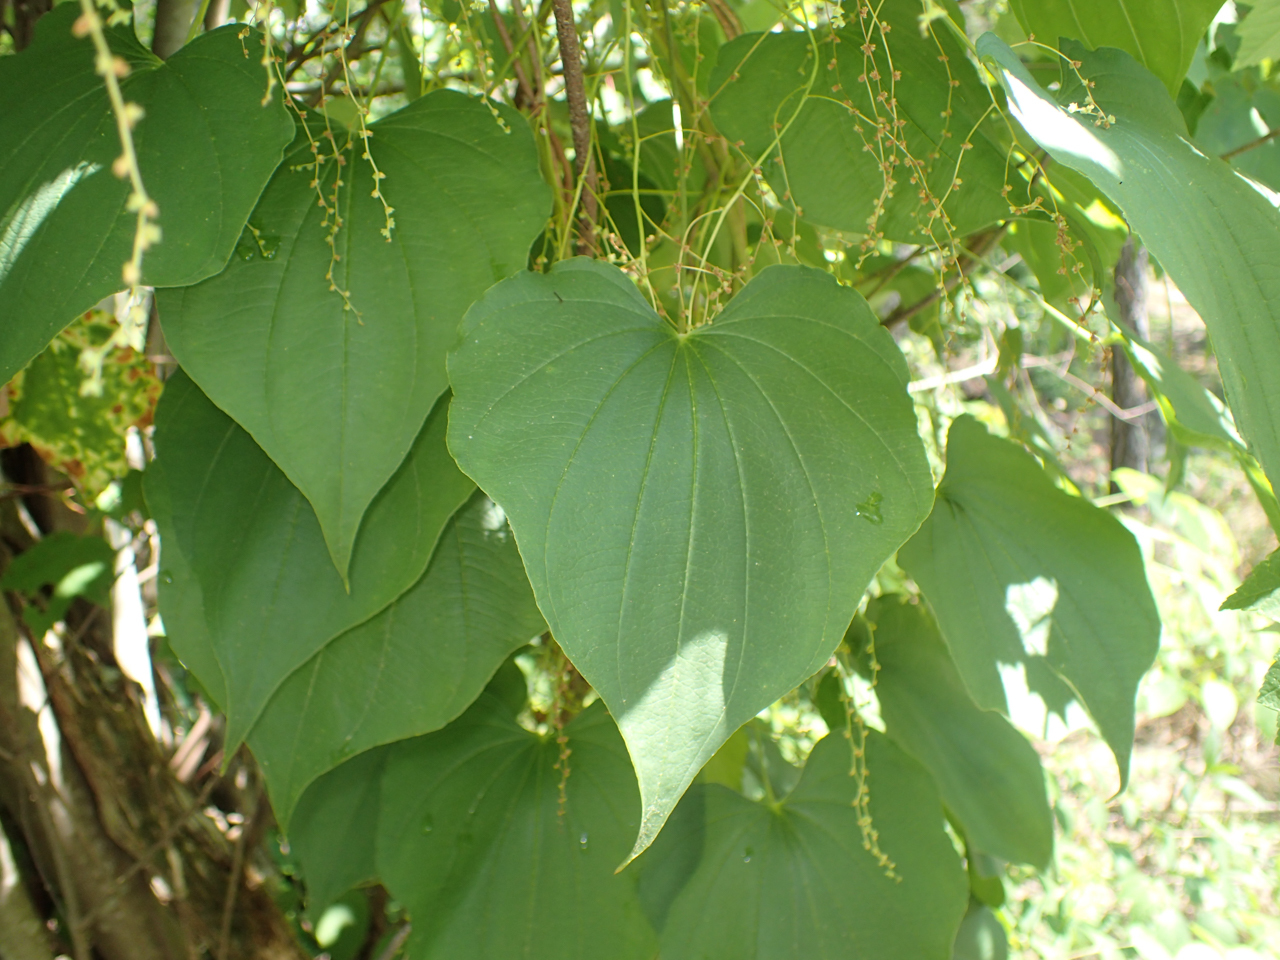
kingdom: Plantae
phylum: Tracheophyta
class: Liliopsida
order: Dioscoreales
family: Dioscoreaceae
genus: Dioscorea
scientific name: Dioscorea villosa
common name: Wild yam
